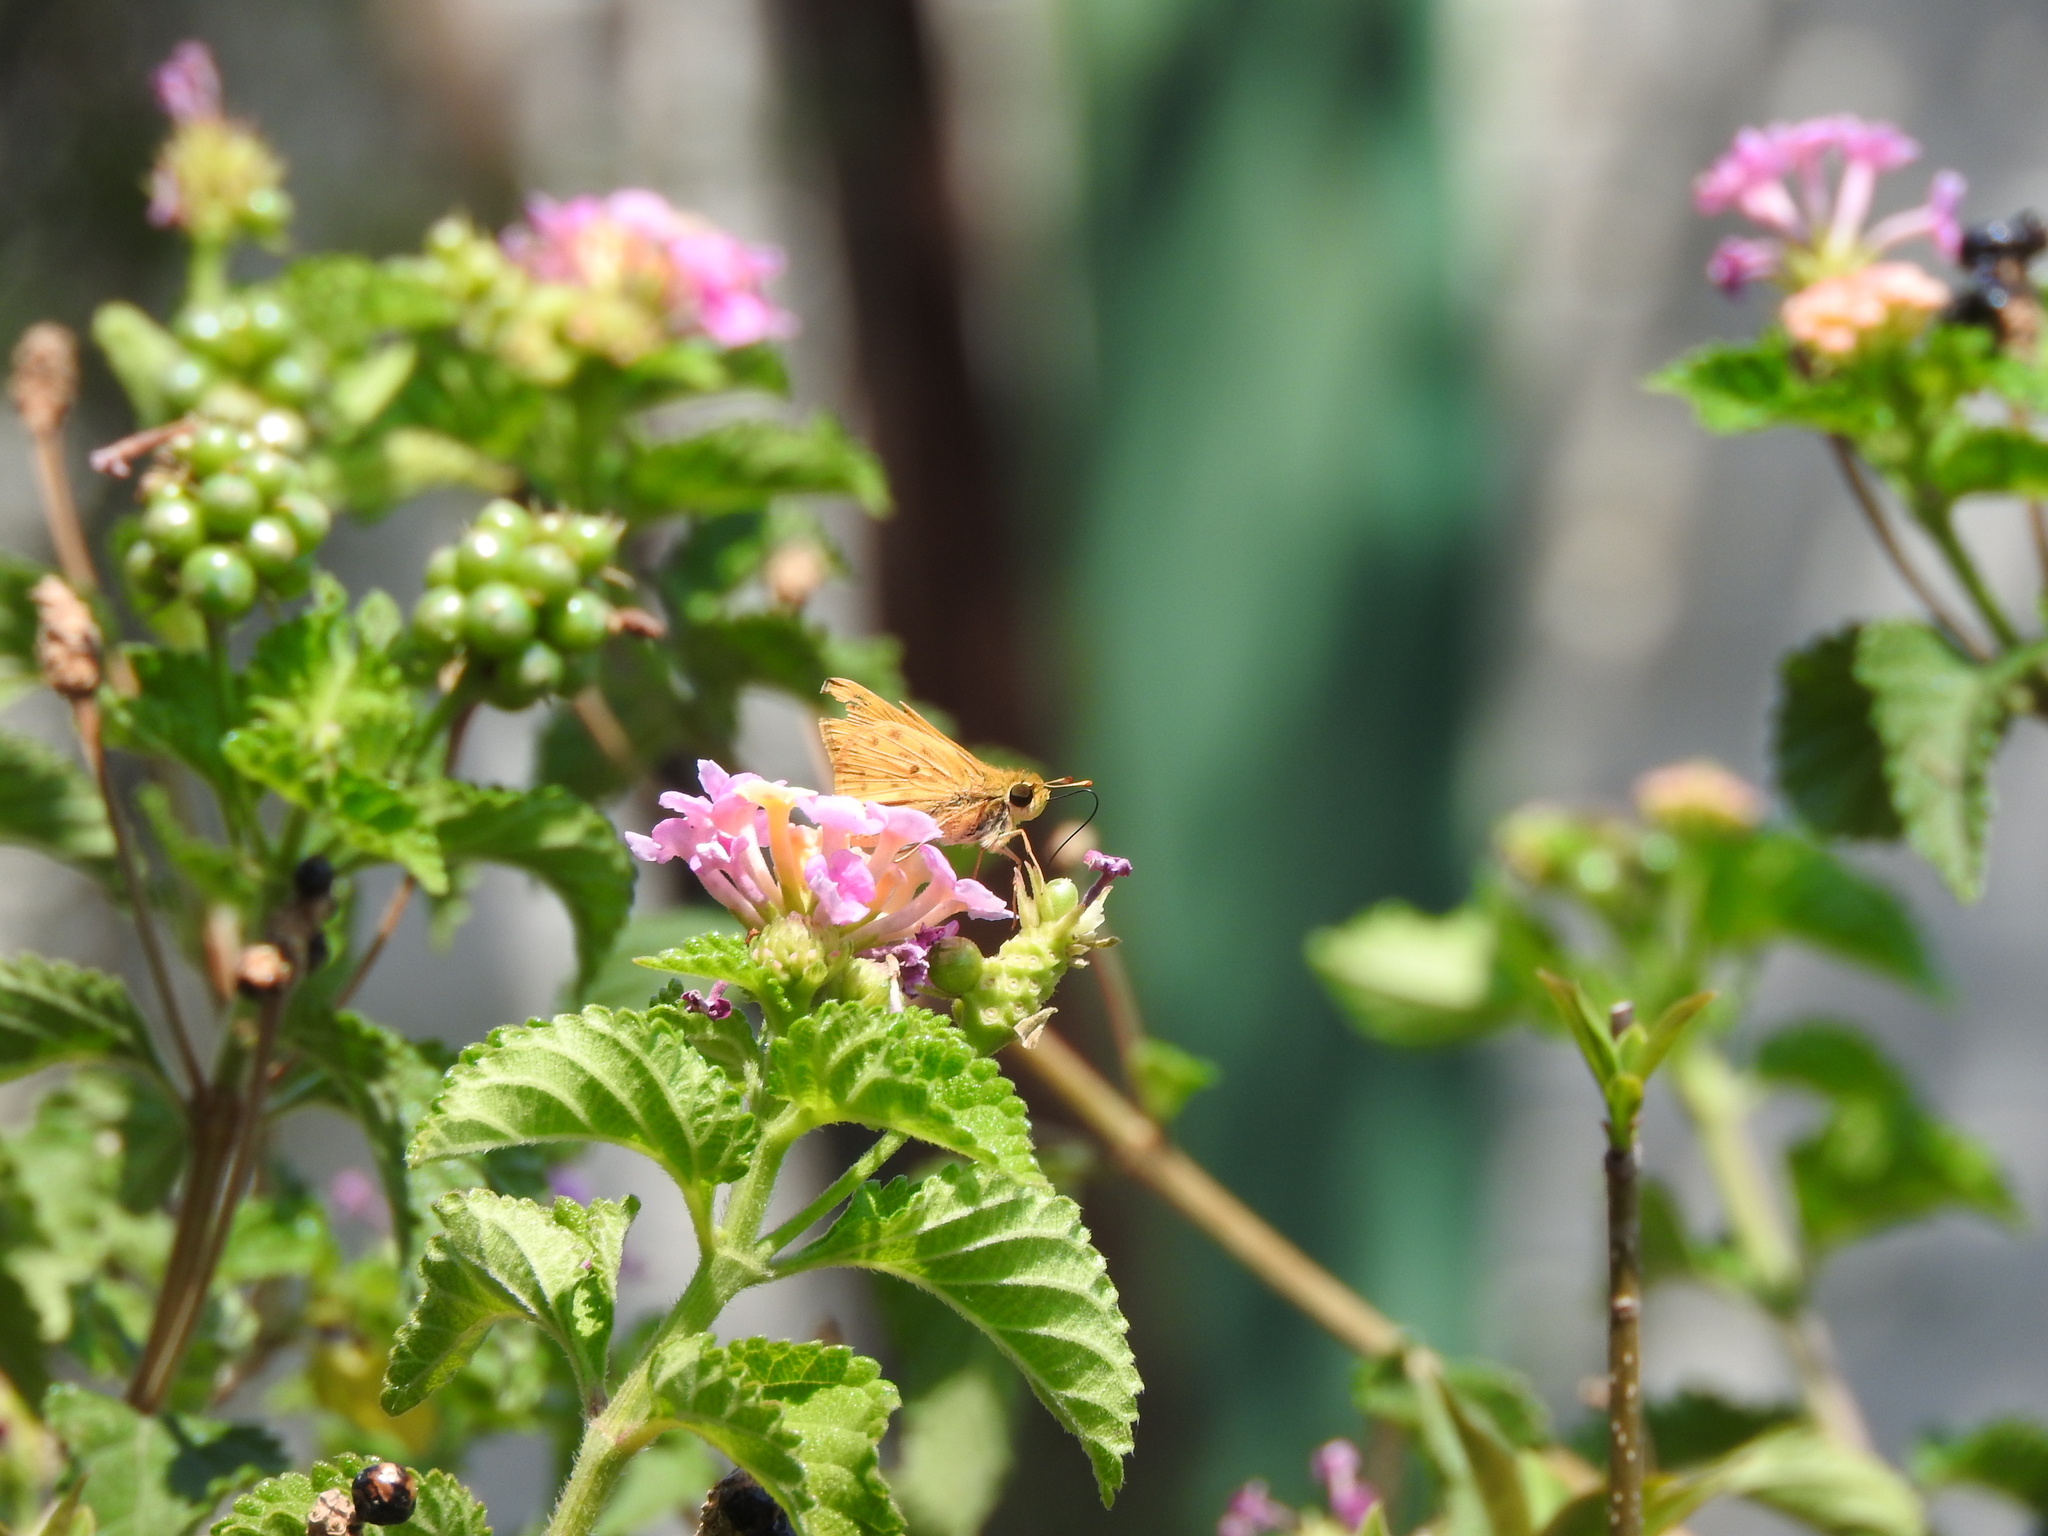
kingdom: Animalia
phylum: Arthropoda
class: Insecta
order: Lepidoptera
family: Hesperiidae
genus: Hylephila
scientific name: Hylephila phyleus
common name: Fiery skipper
